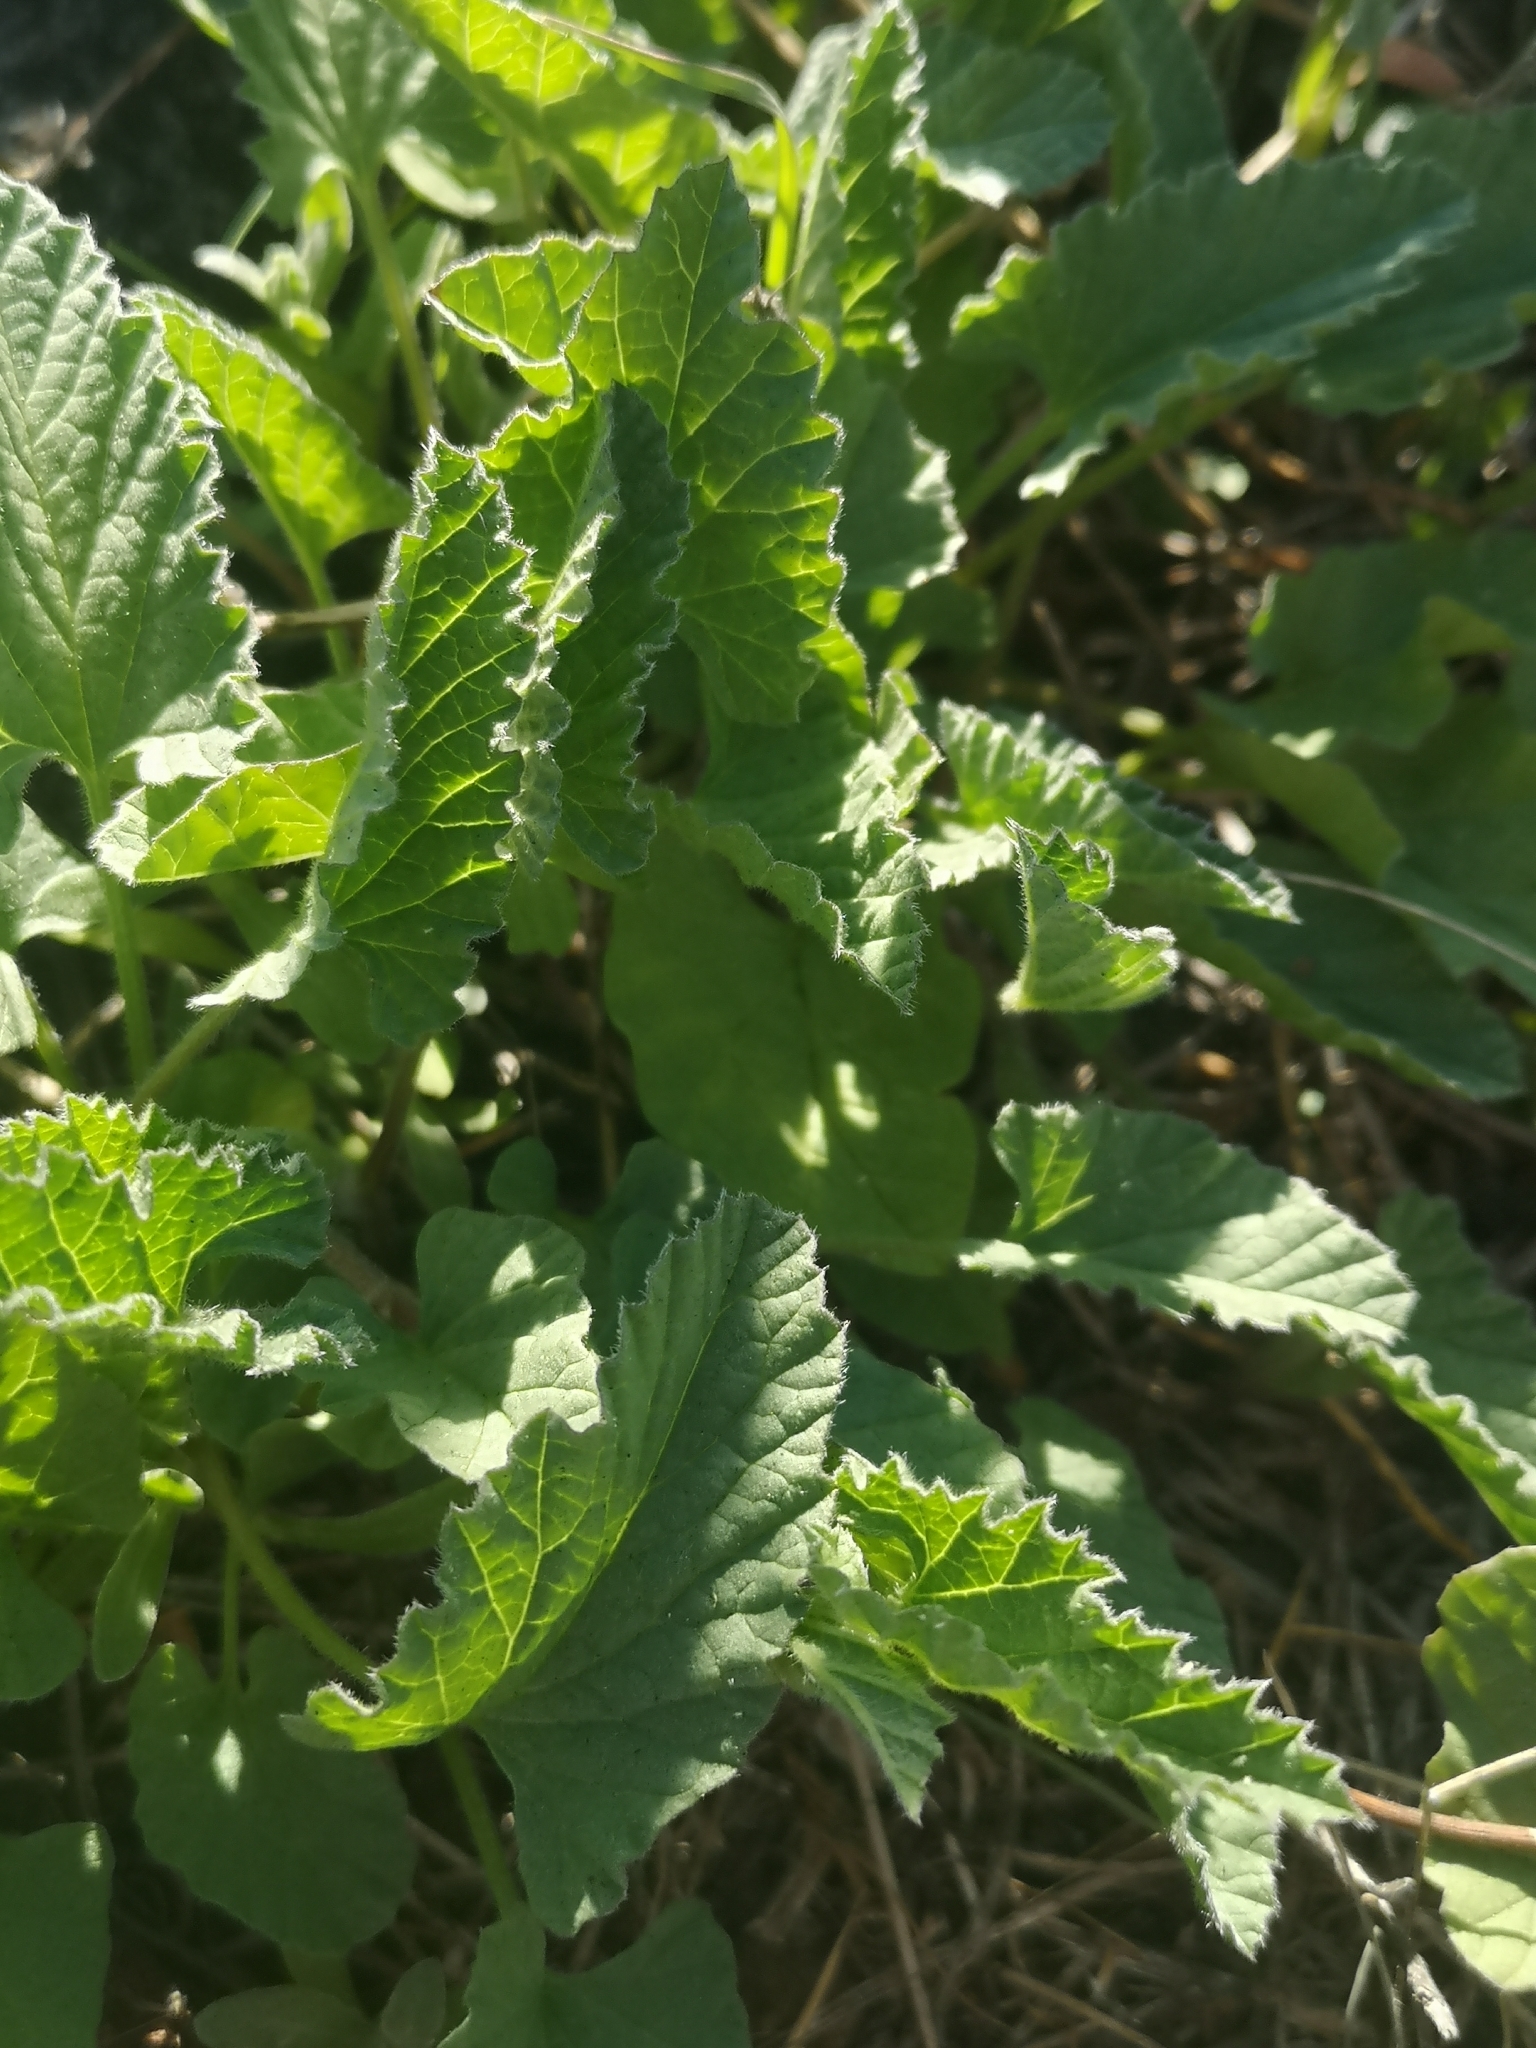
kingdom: Plantae
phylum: Tracheophyta
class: Magnoliopsida
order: Geraniales
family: Geraniaceae
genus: Erodium
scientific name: Erodium malacoides
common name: Soft stork's-bill
